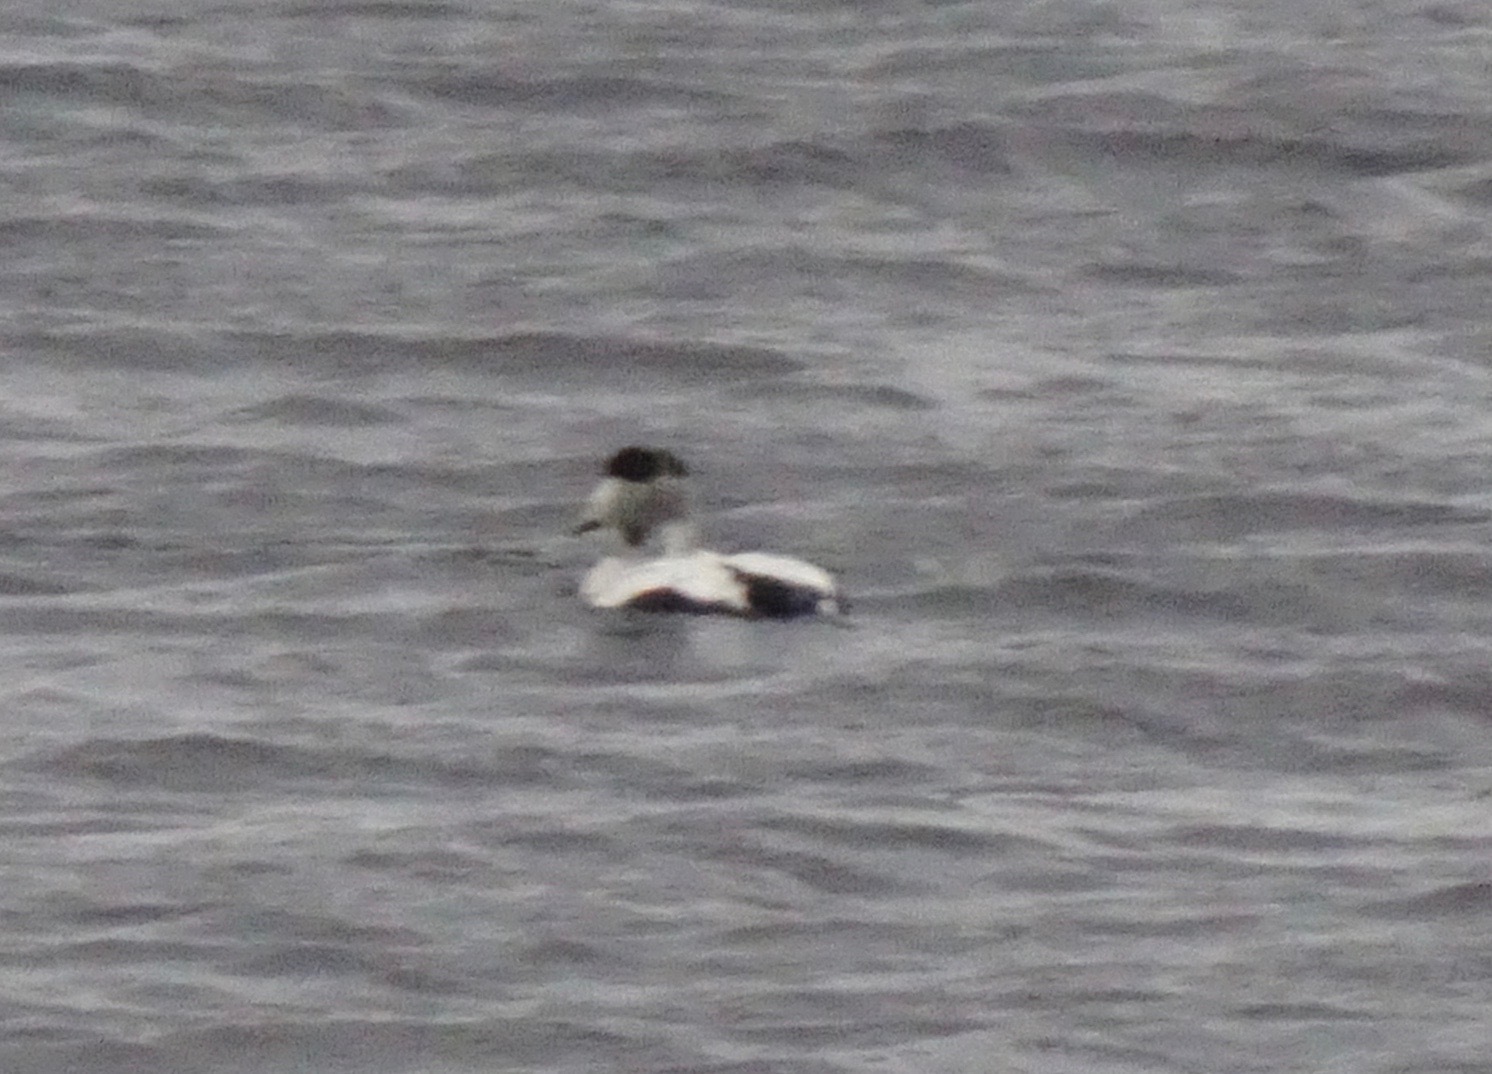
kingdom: Animalia
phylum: Chordata
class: Aves
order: Anseriformes
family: Anatidae
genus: Somateria
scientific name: Somateria mollissima
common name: Common eider
